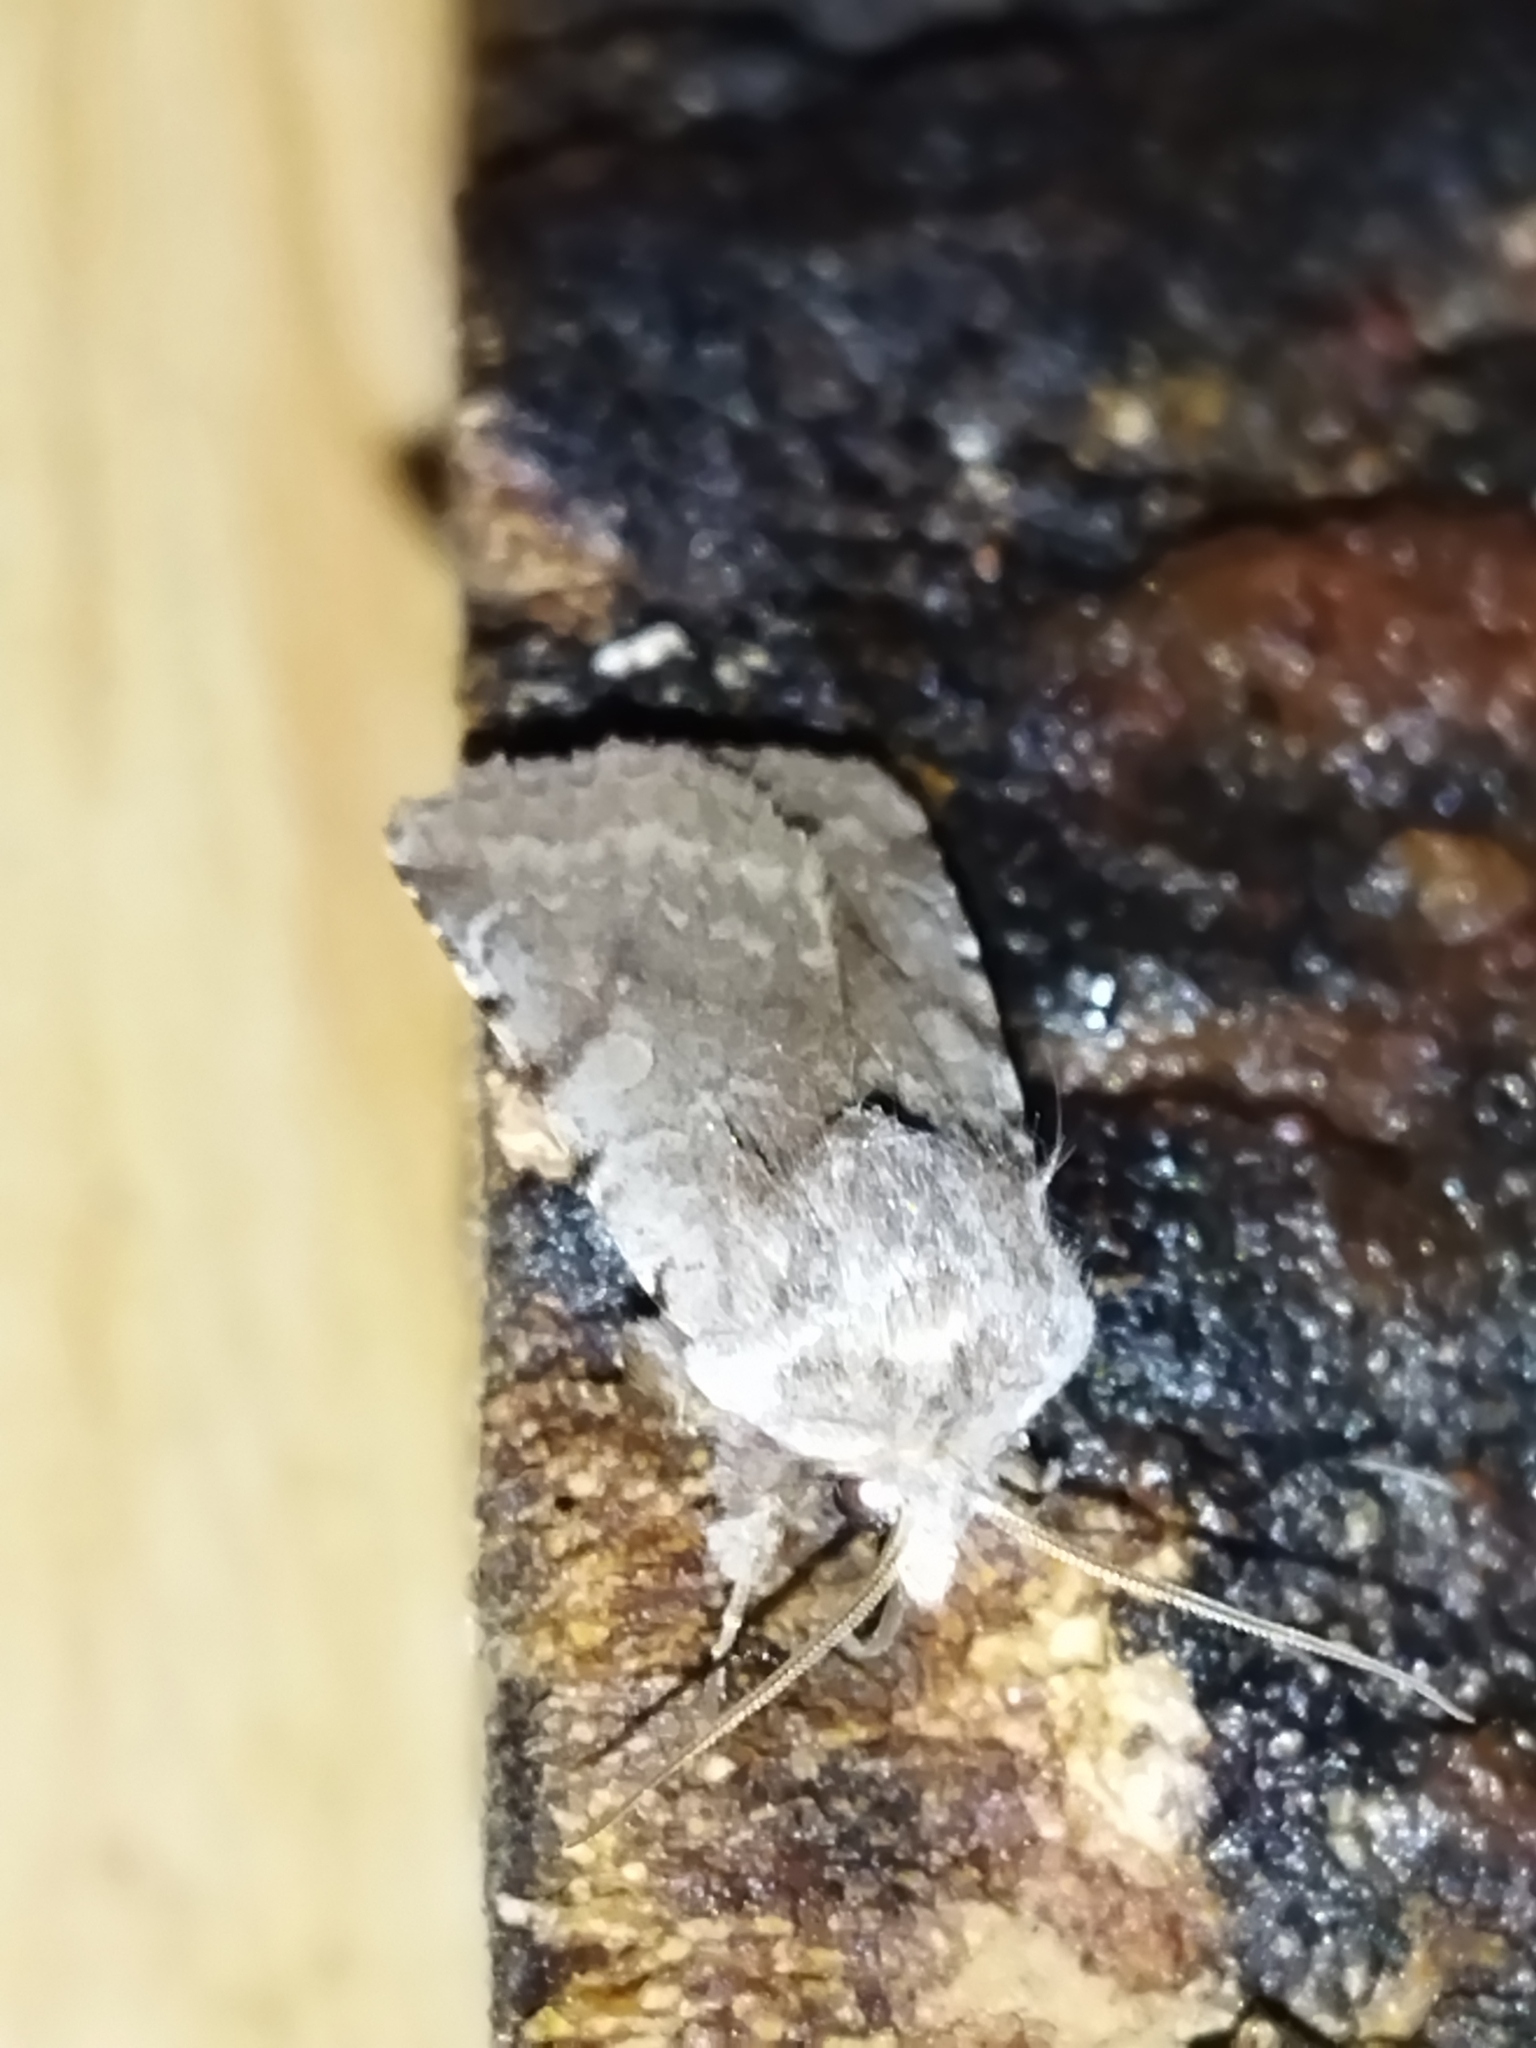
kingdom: Animalia
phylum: Arthropoda
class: Insecta
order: Lepidoptera
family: Noctuidae
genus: Cerastis
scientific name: Cerastis rubricosa
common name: Red chestnut
